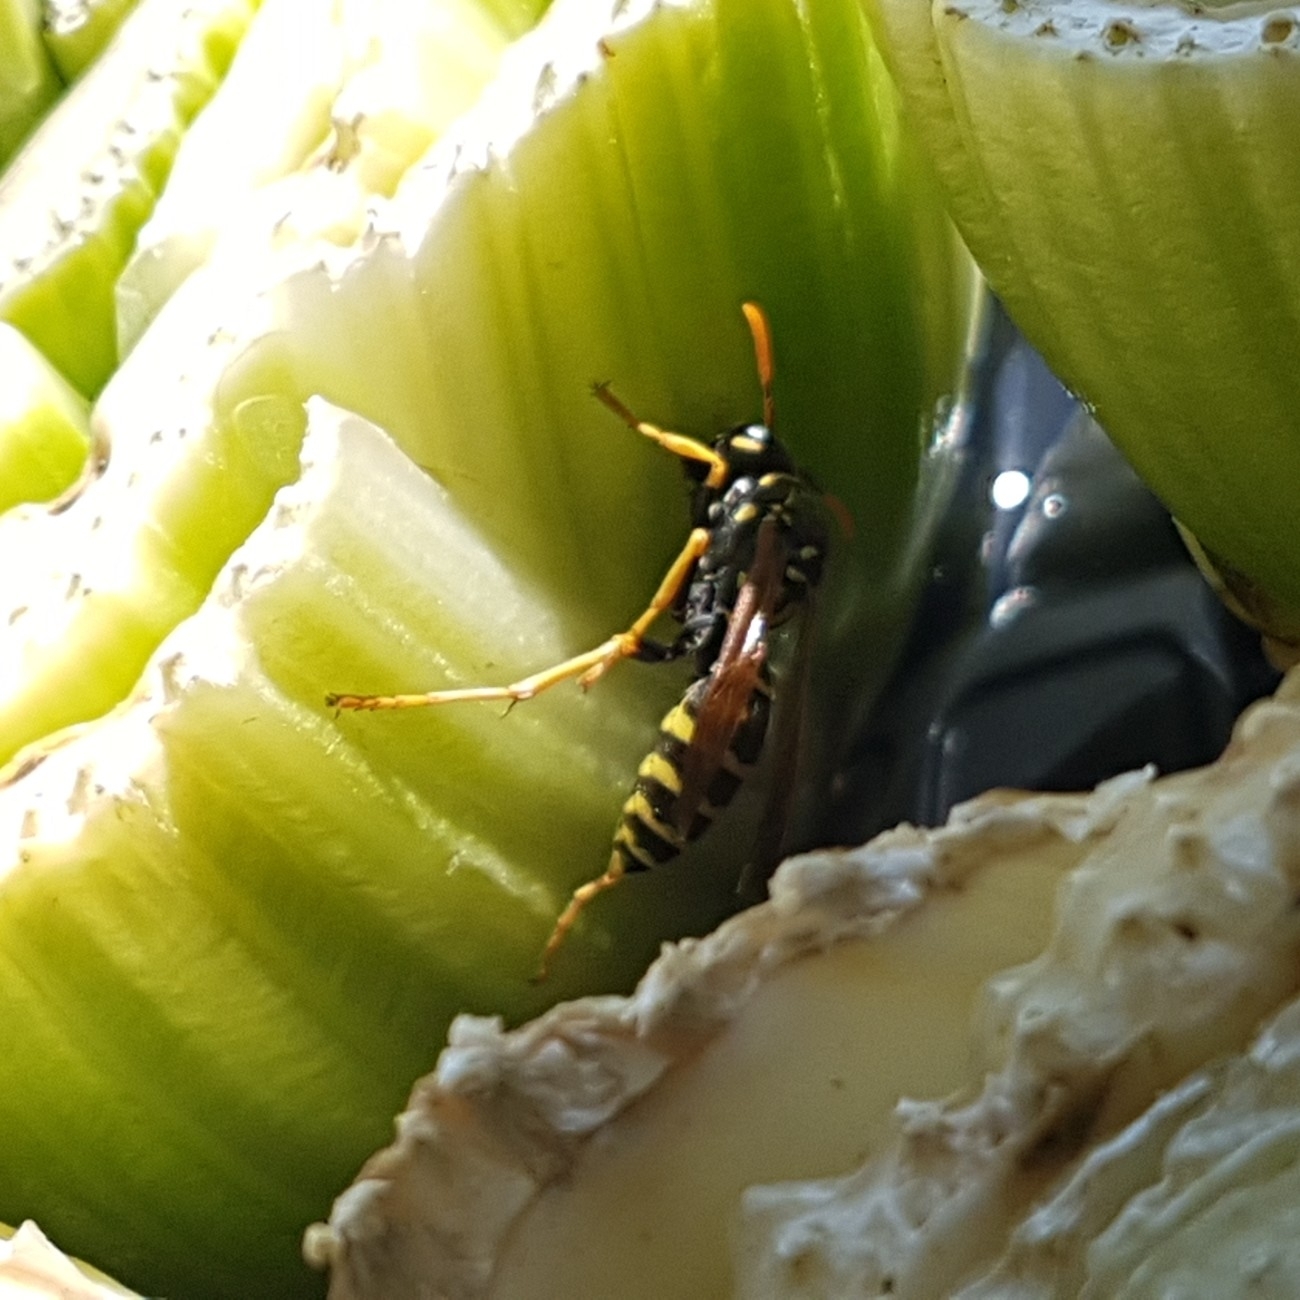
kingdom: Animalia
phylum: Arthropoda
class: Insecta
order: Hymenoptera
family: Eumenidae
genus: Polistes
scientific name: Polistes dominula
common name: Paper wasp
